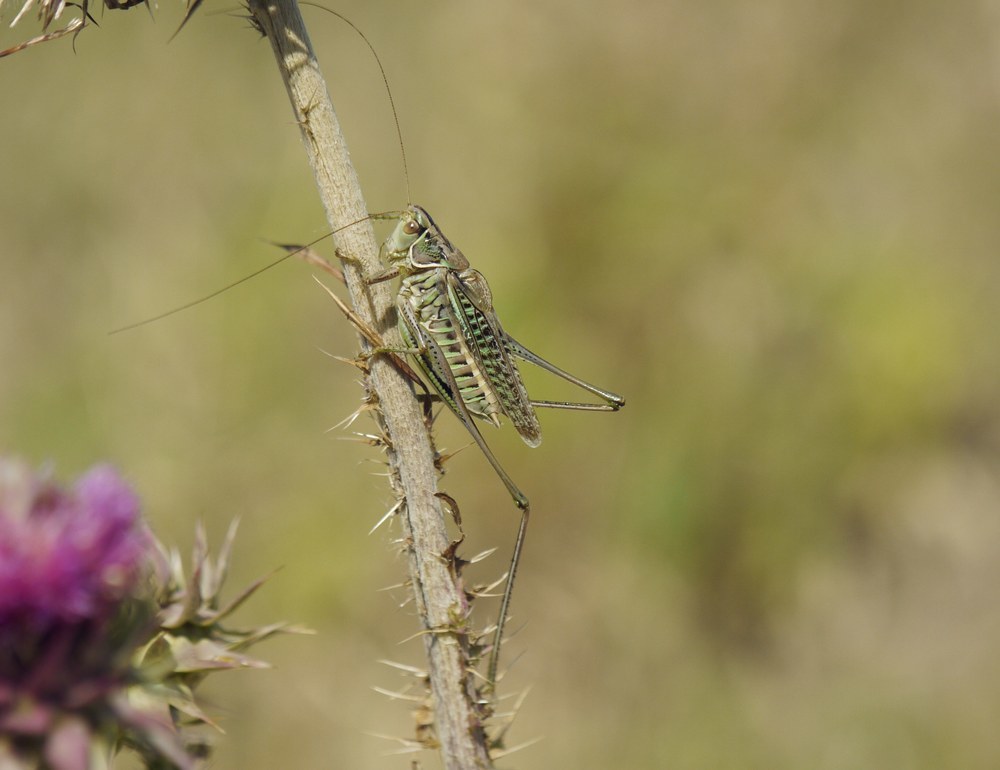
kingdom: Animalia
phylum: Arthropoda
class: Insecta
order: Orthoptera
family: Tettigoniidae
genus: Gampsocleis
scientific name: Gampsocleis glabra
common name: Heath bushcricket
